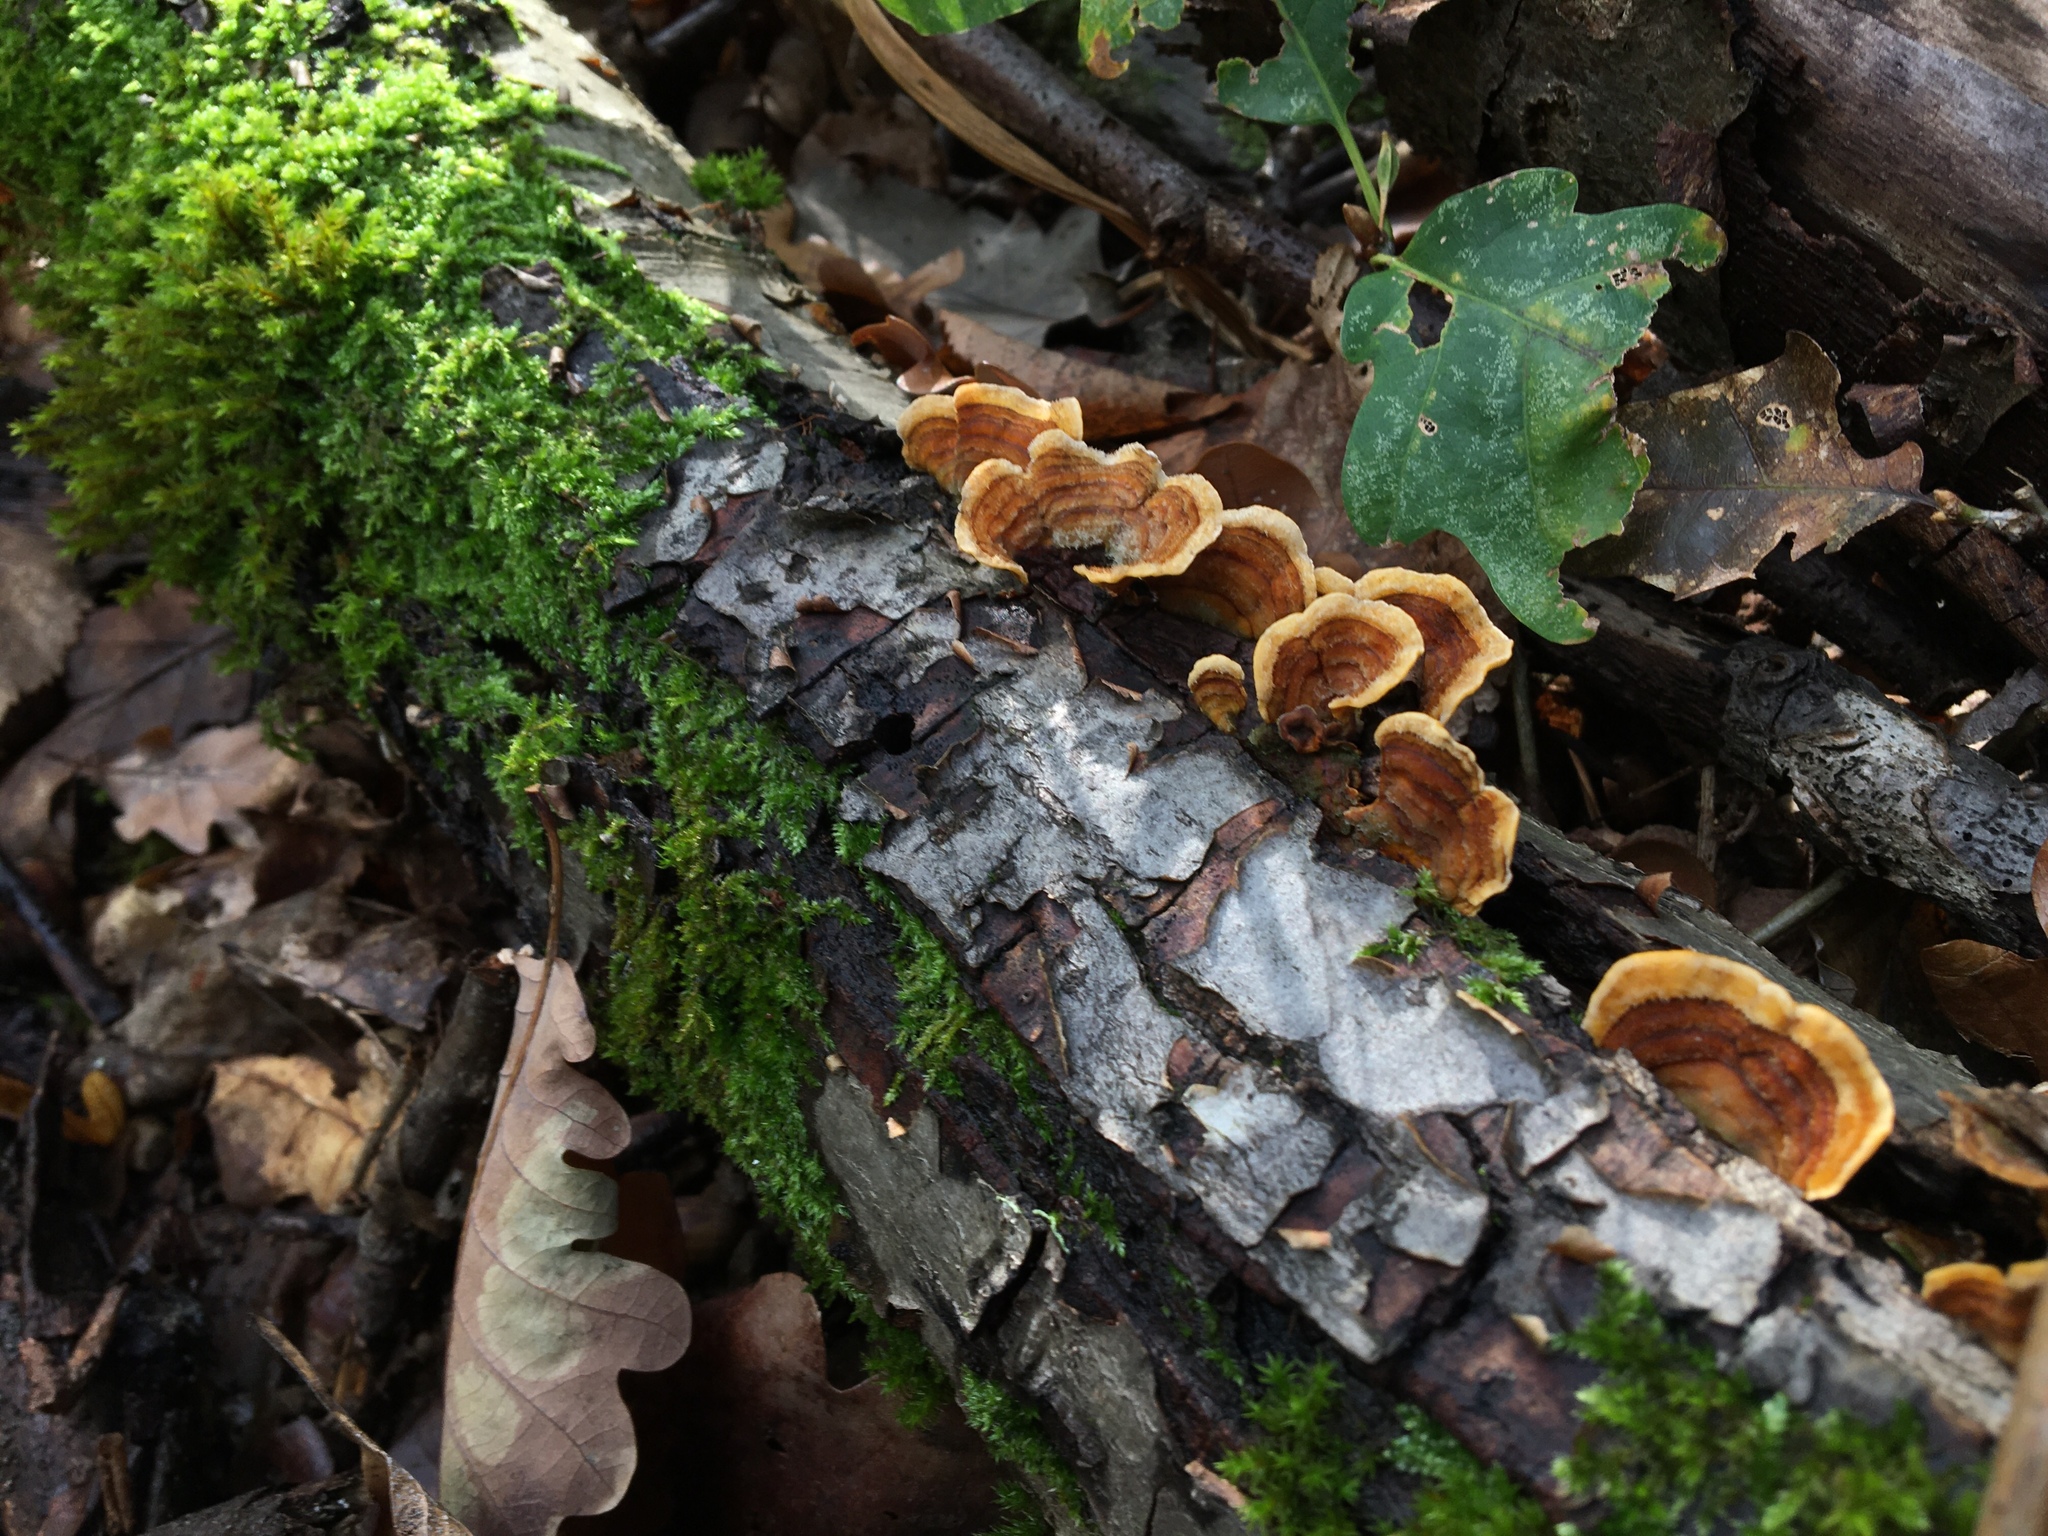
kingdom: Fungi
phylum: Basidiomycota
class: Agaricomycetes
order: Russulales
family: Stereaceae
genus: Stereum
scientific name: Stereum hirsutum
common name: Hairy curtain crust
